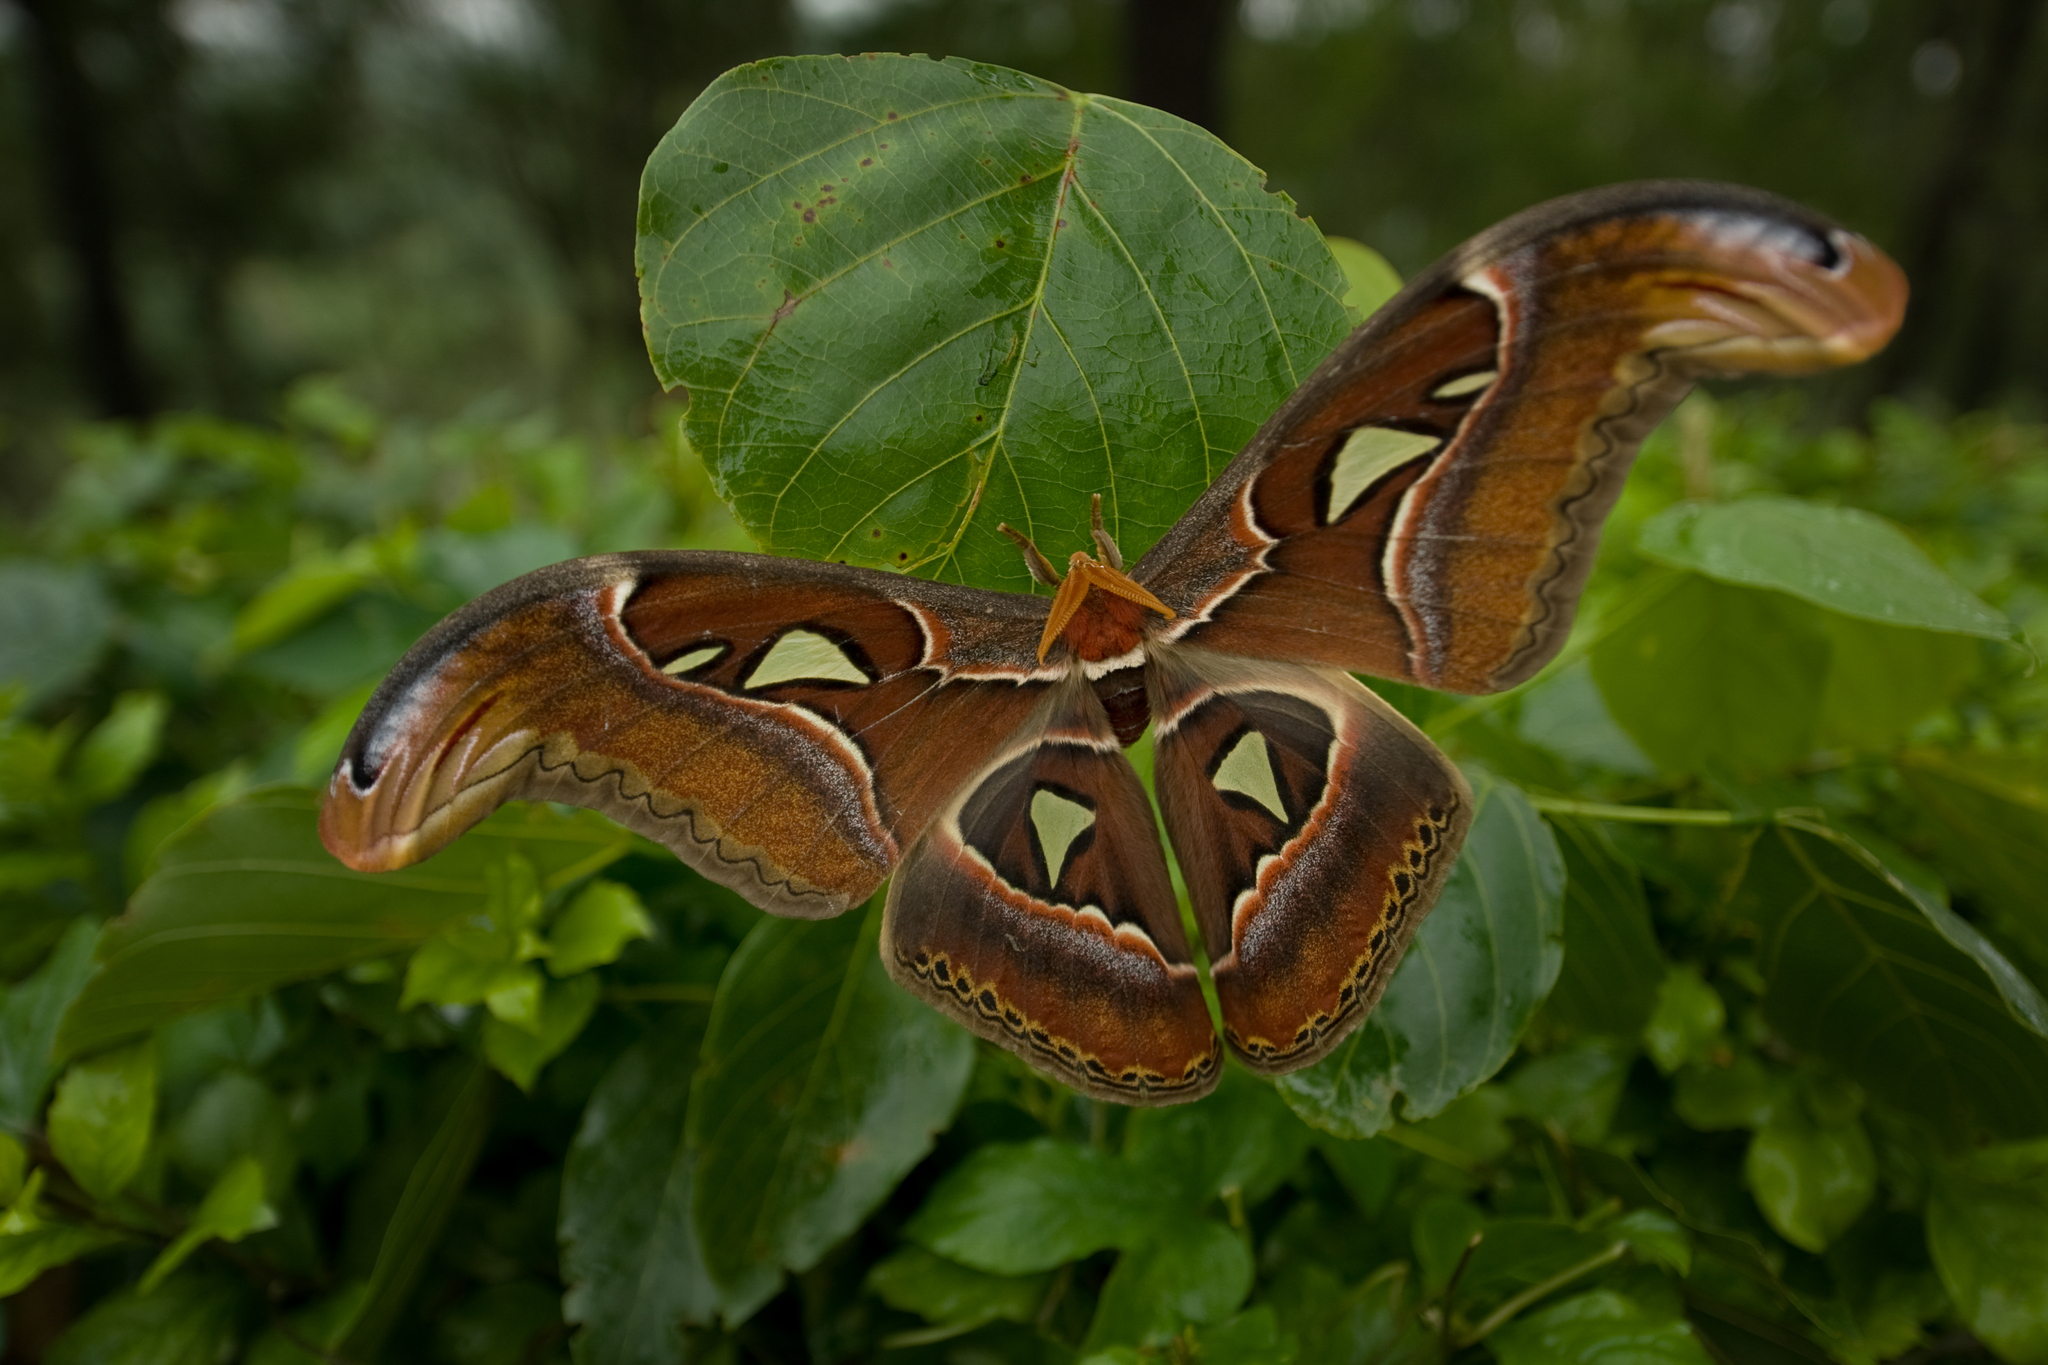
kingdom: Animalia
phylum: Arthropoda
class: Insecta
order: Lepidoptera
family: Saturniidae
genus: Attacus
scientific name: Attacus taprobanis
